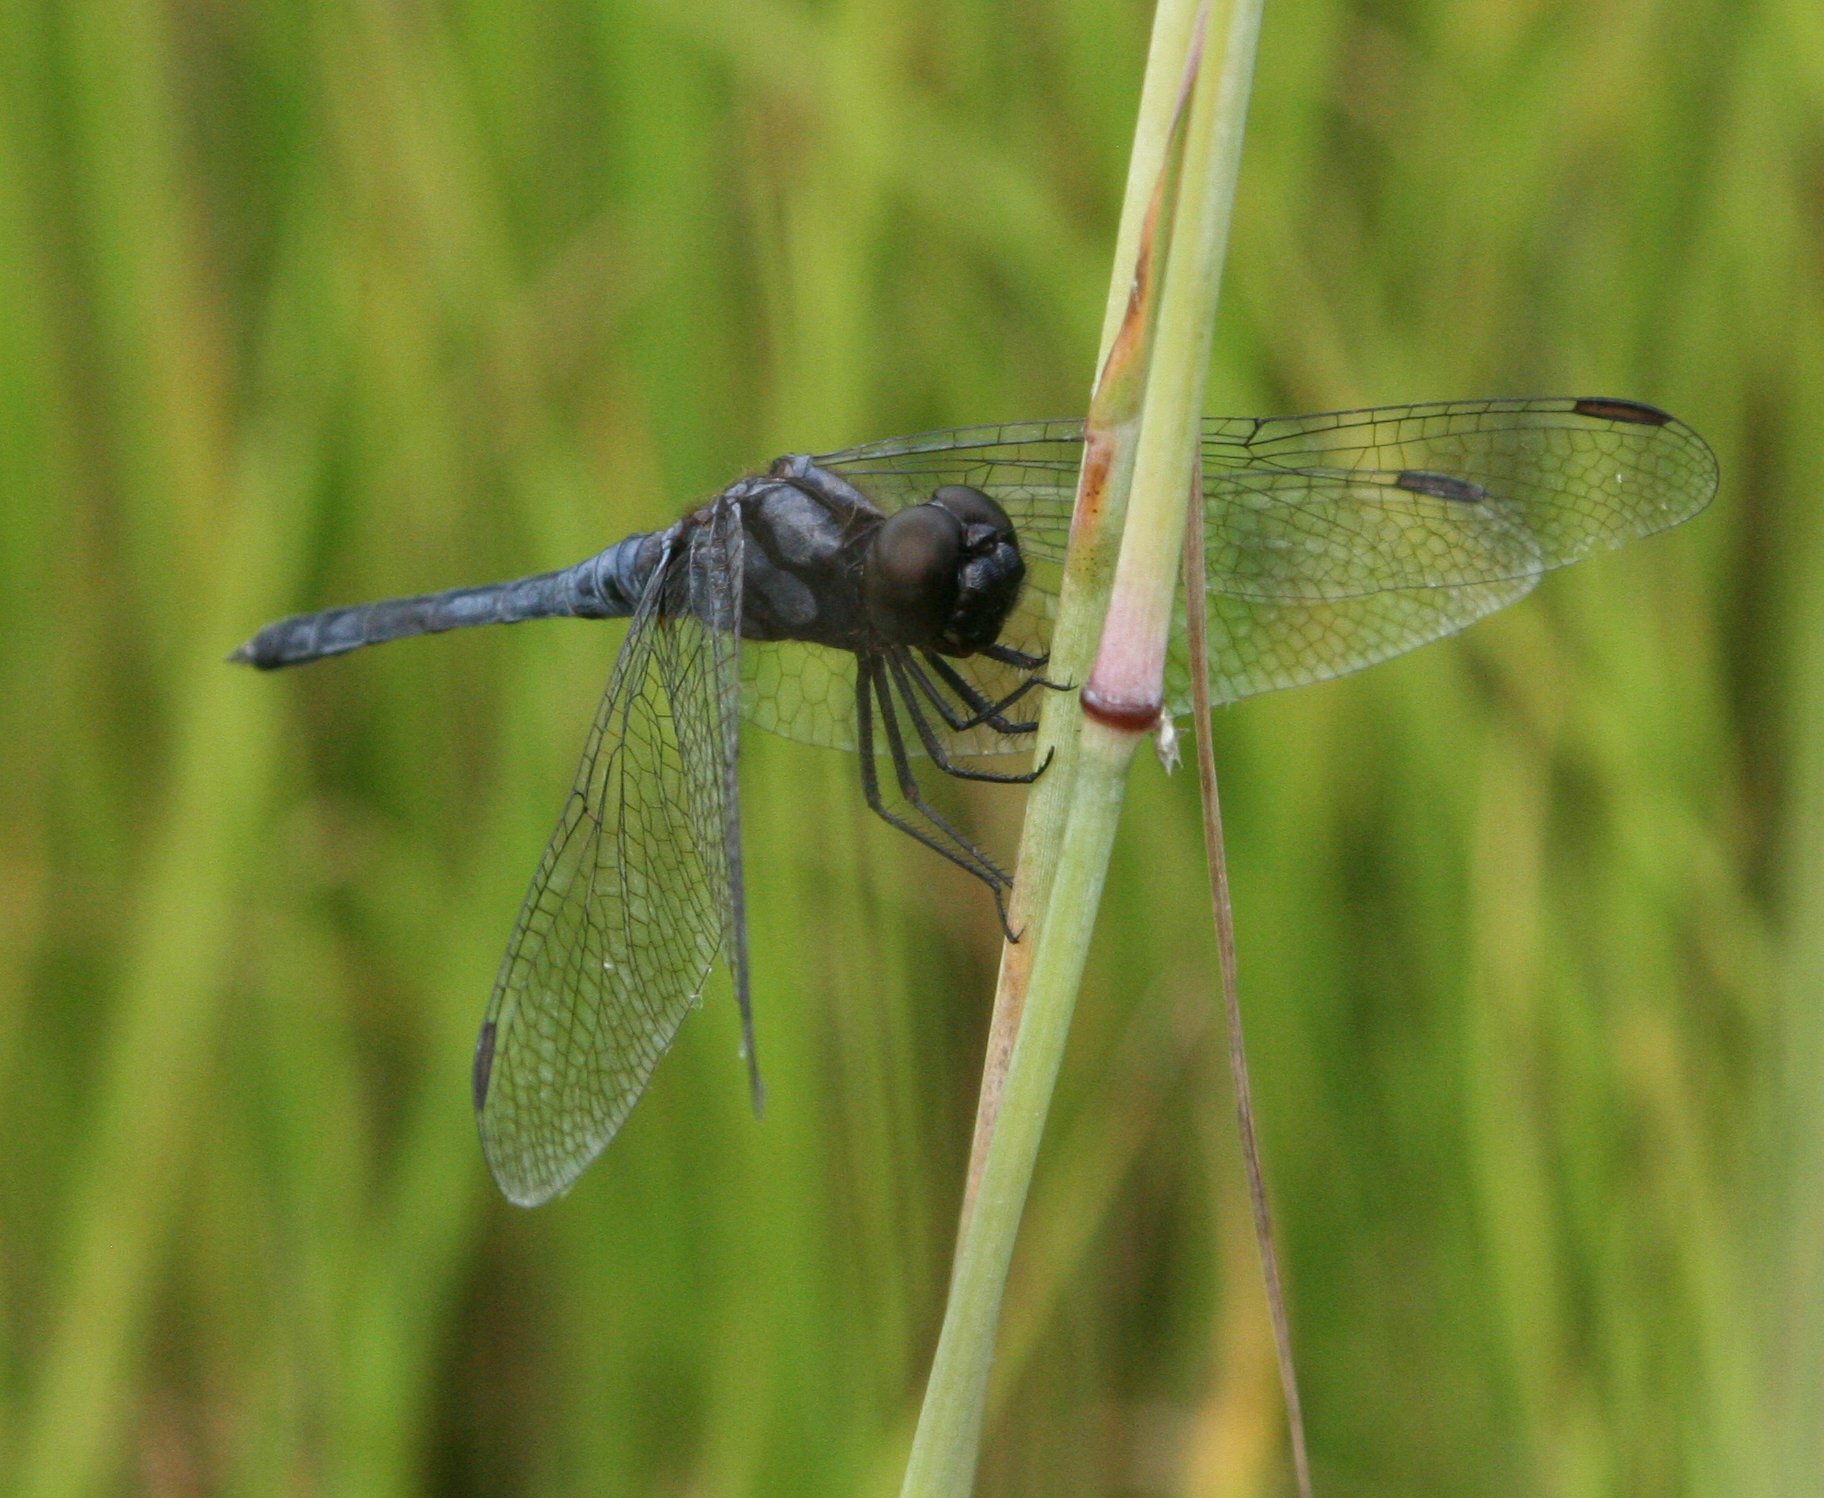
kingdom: Animalia
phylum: Arthropoda
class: Insecta
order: Odonata
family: Libellulidae
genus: Indothemis
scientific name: Indothemis carnatica
